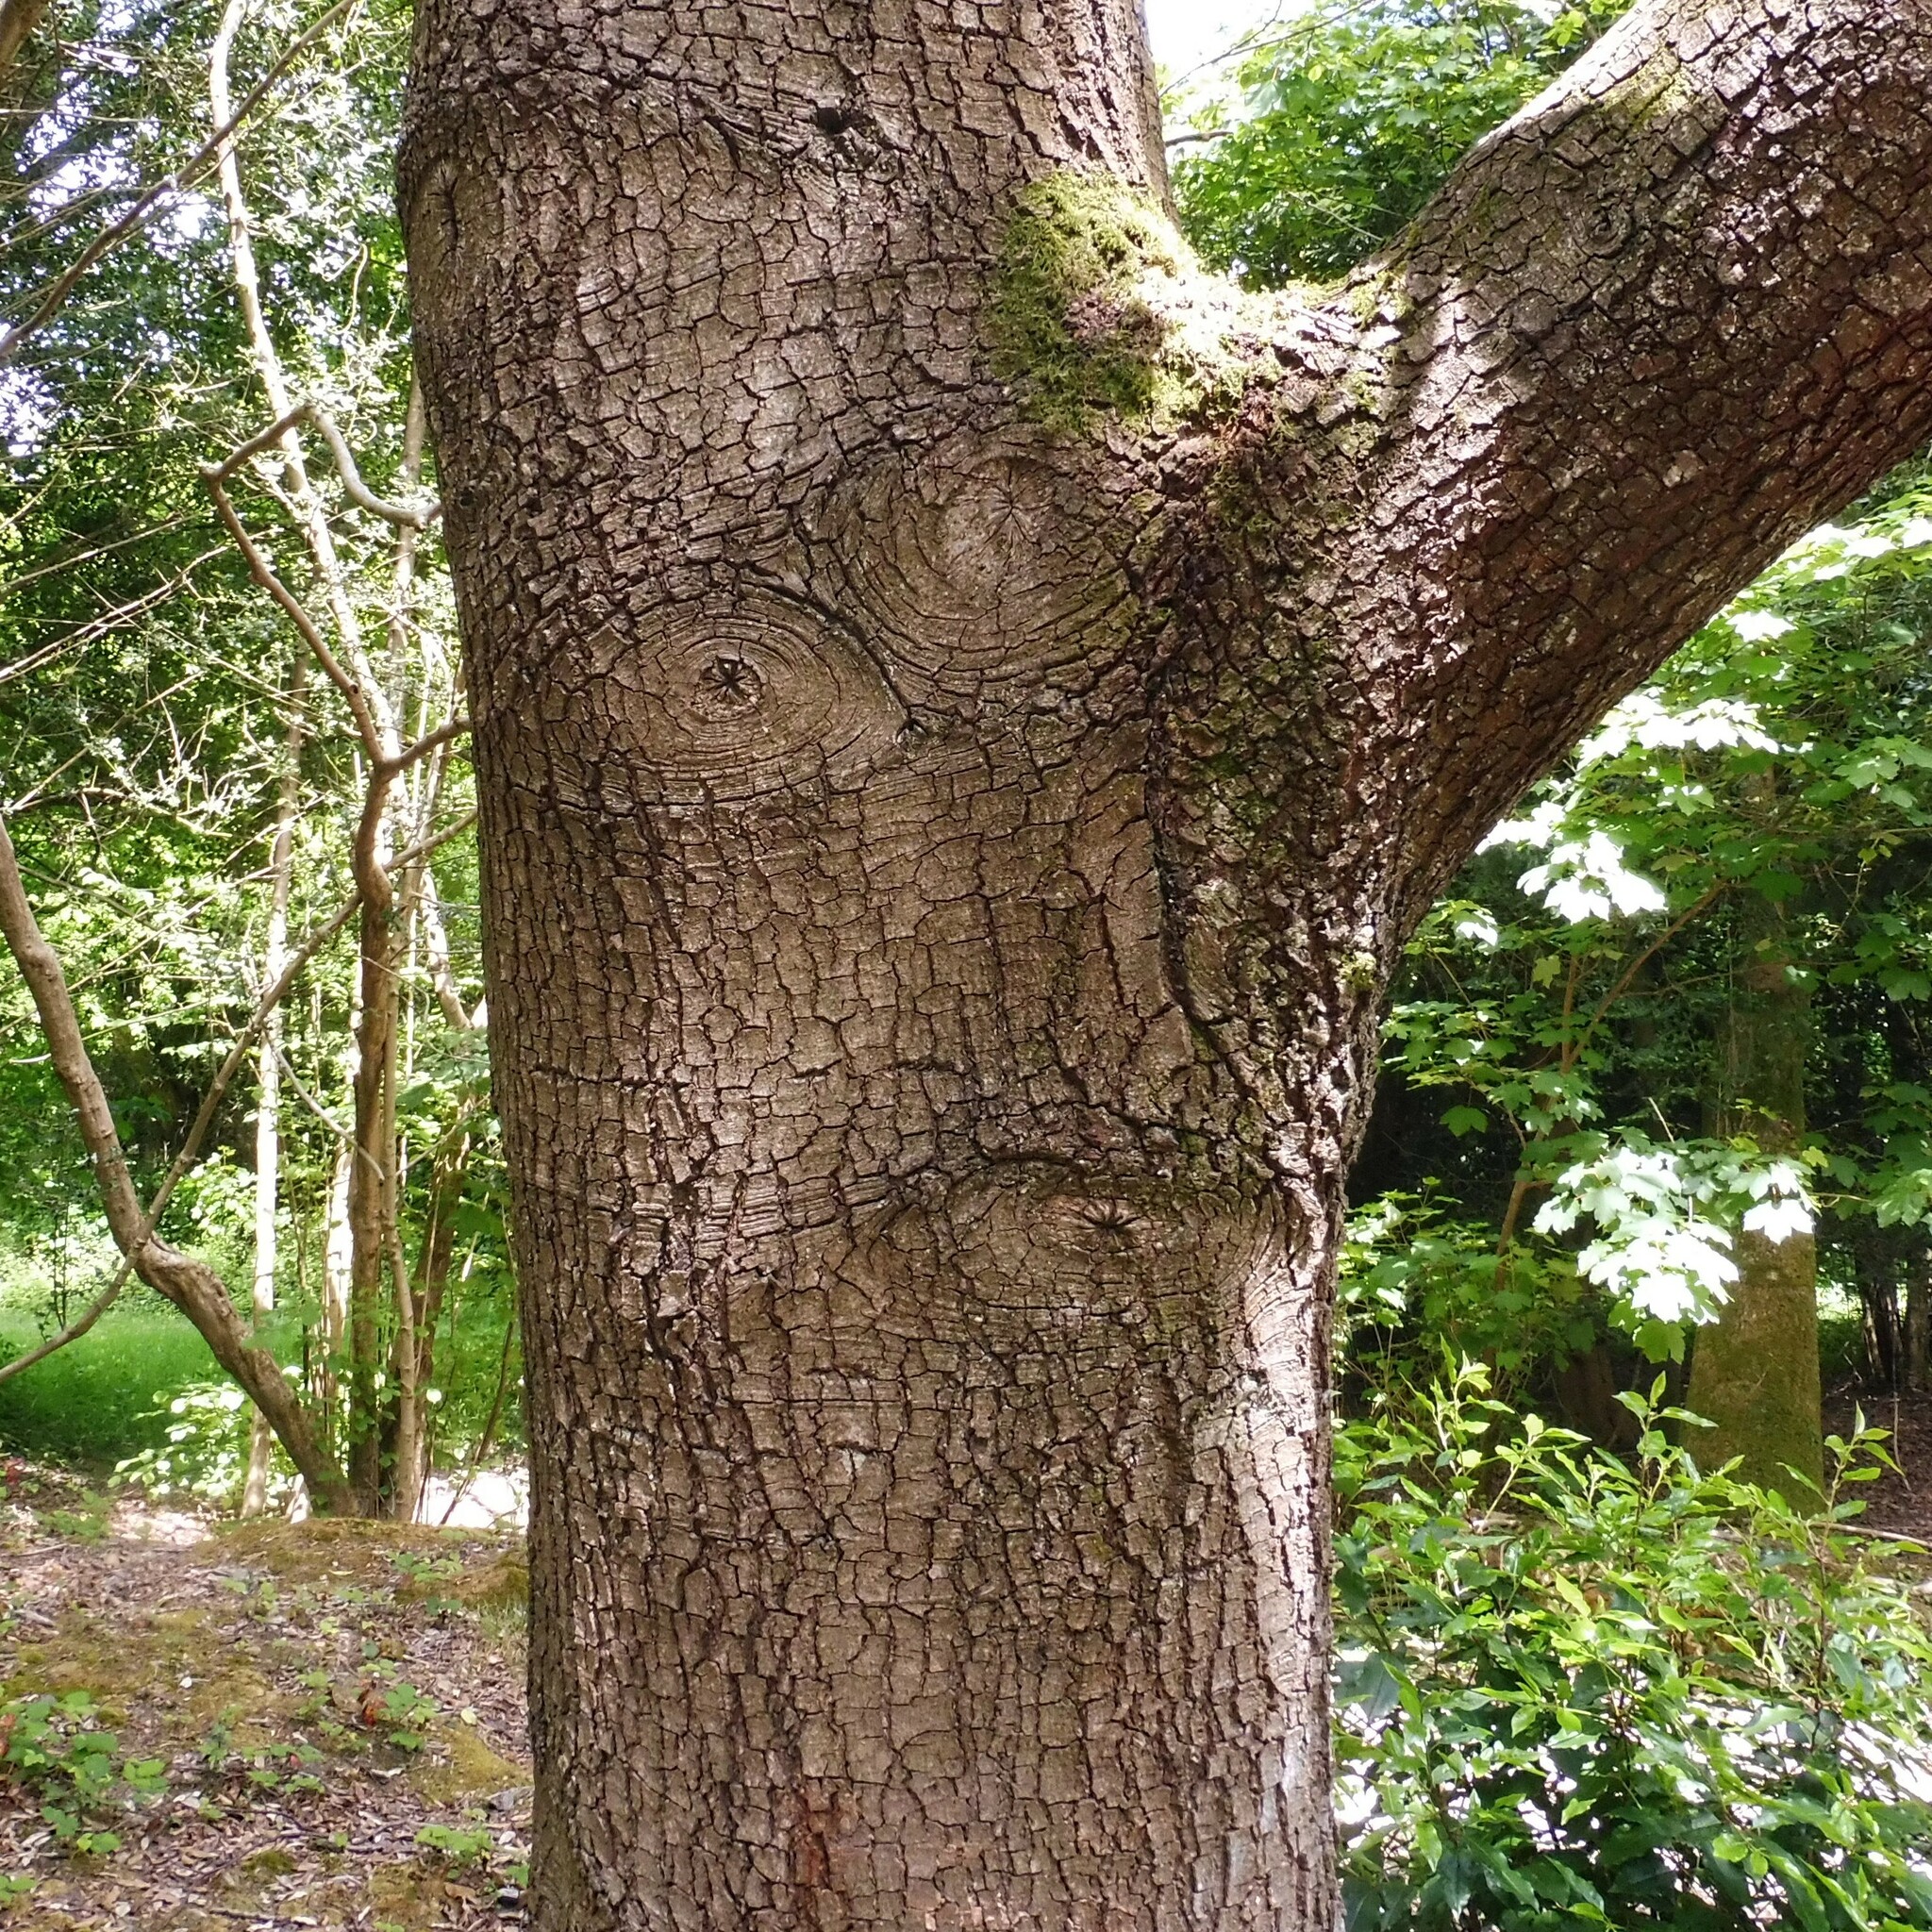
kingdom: Plantae
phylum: Tracheophyta
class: Magnoliopsida
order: Fagales
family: Fagaceae
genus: Quercus
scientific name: Quercus
